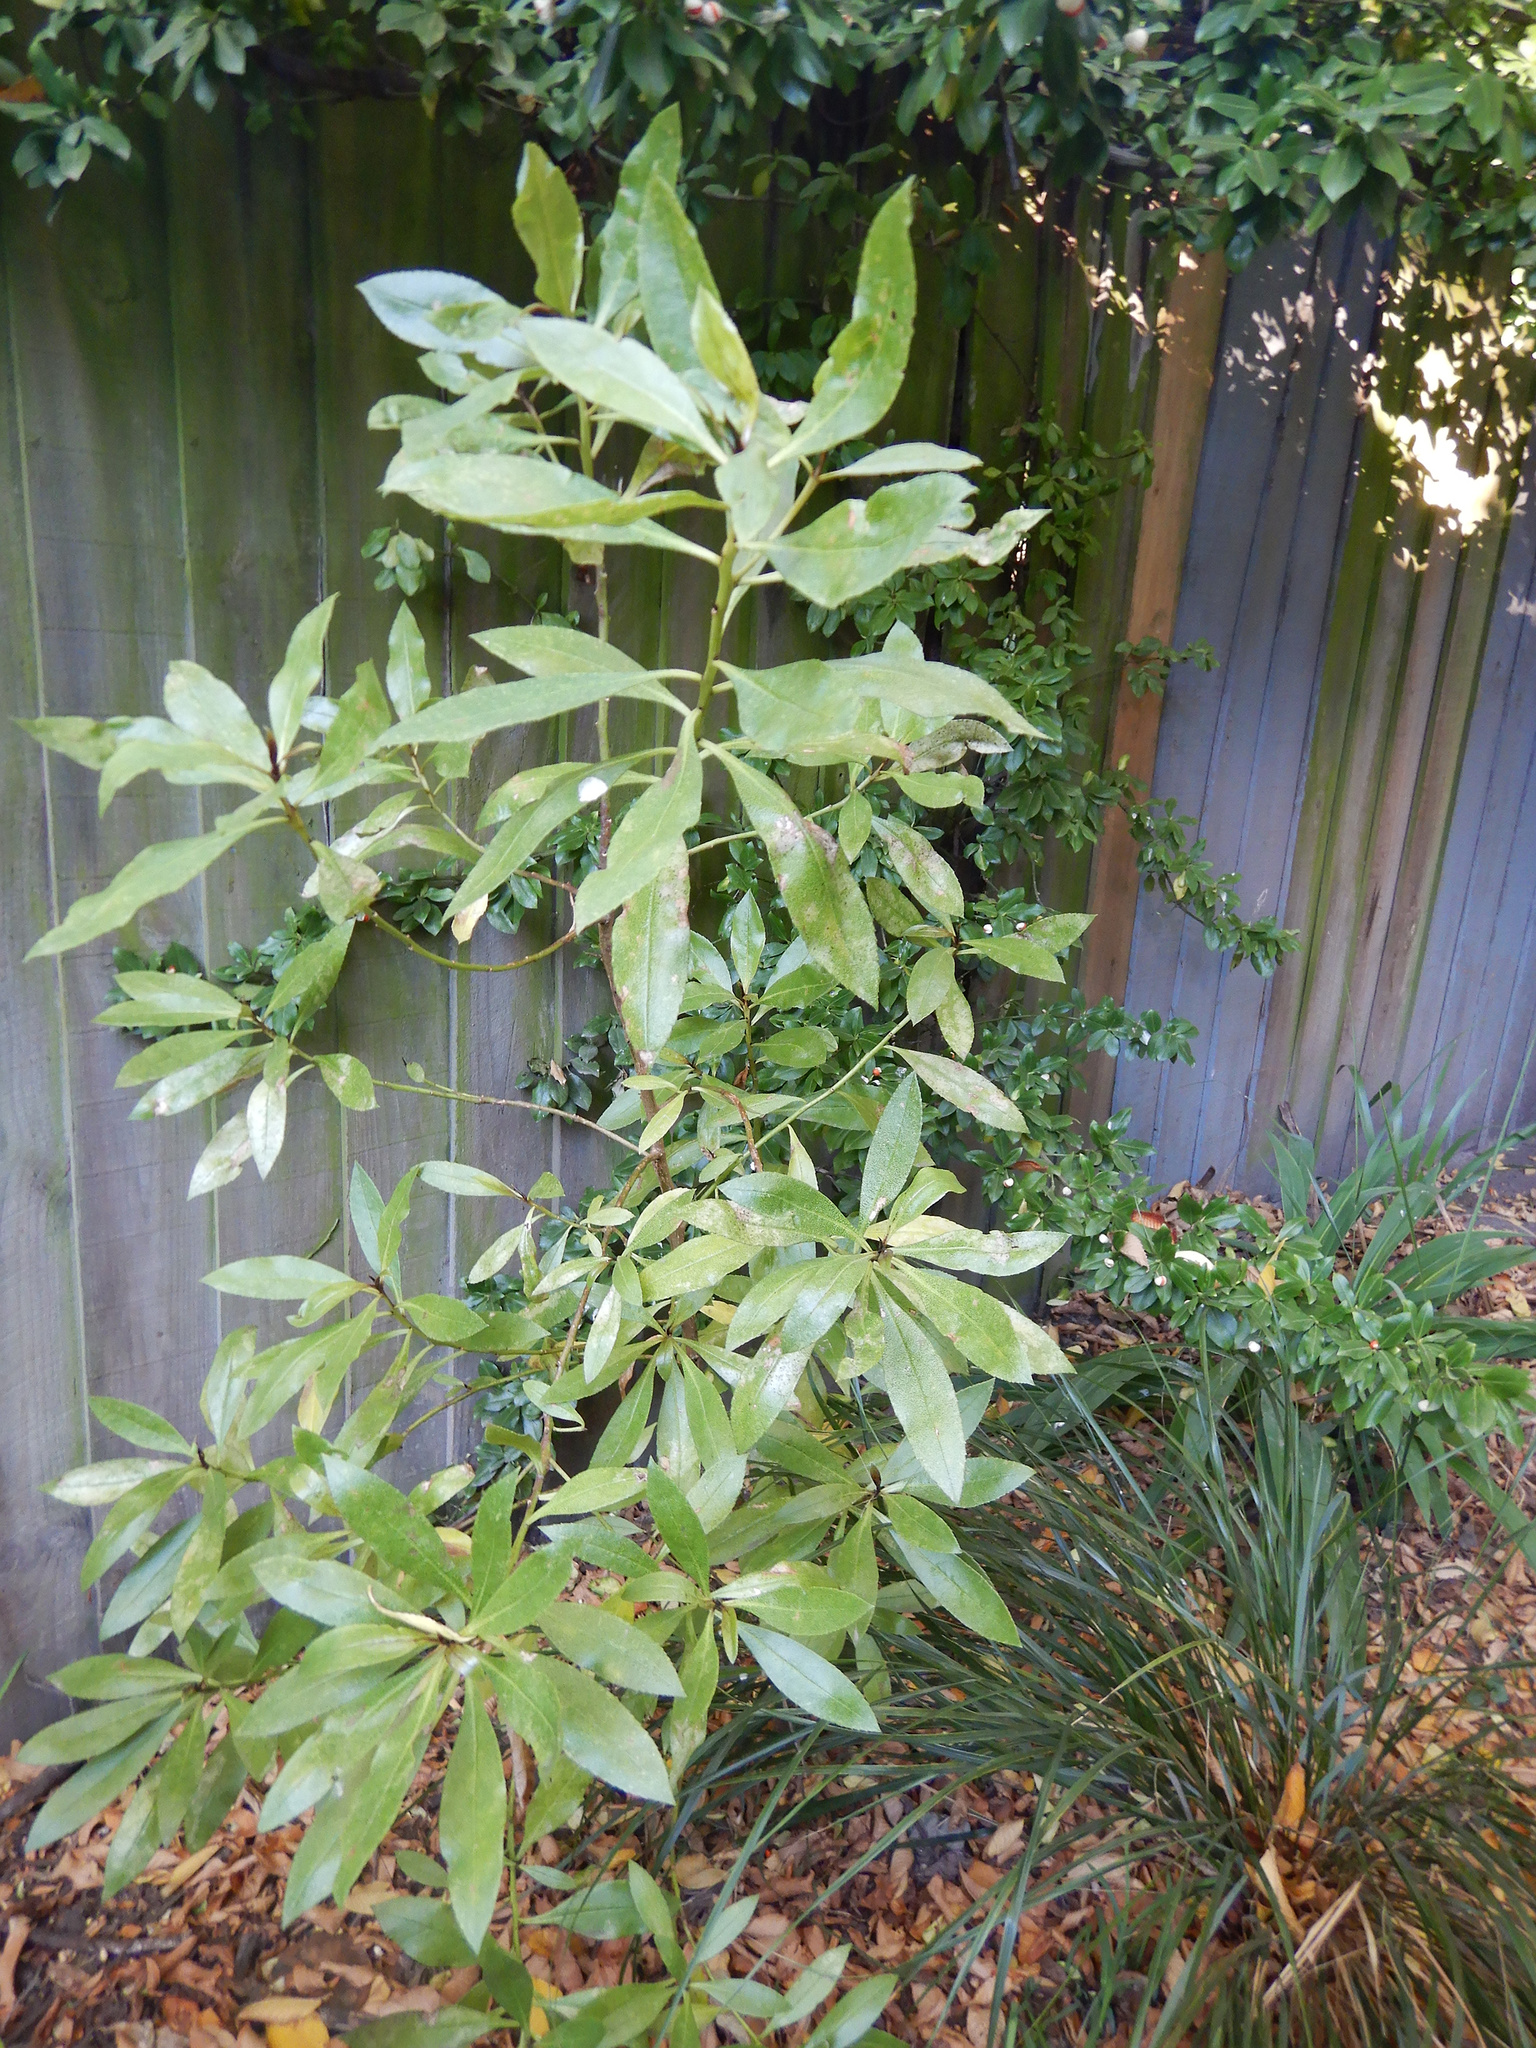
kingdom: Plantae
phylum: Tracheophyta
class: Magnoliopsida
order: Lamiales
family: Scrophulariaceae
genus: Myoporum
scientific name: Myoporum laetum
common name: Ngaio tree
